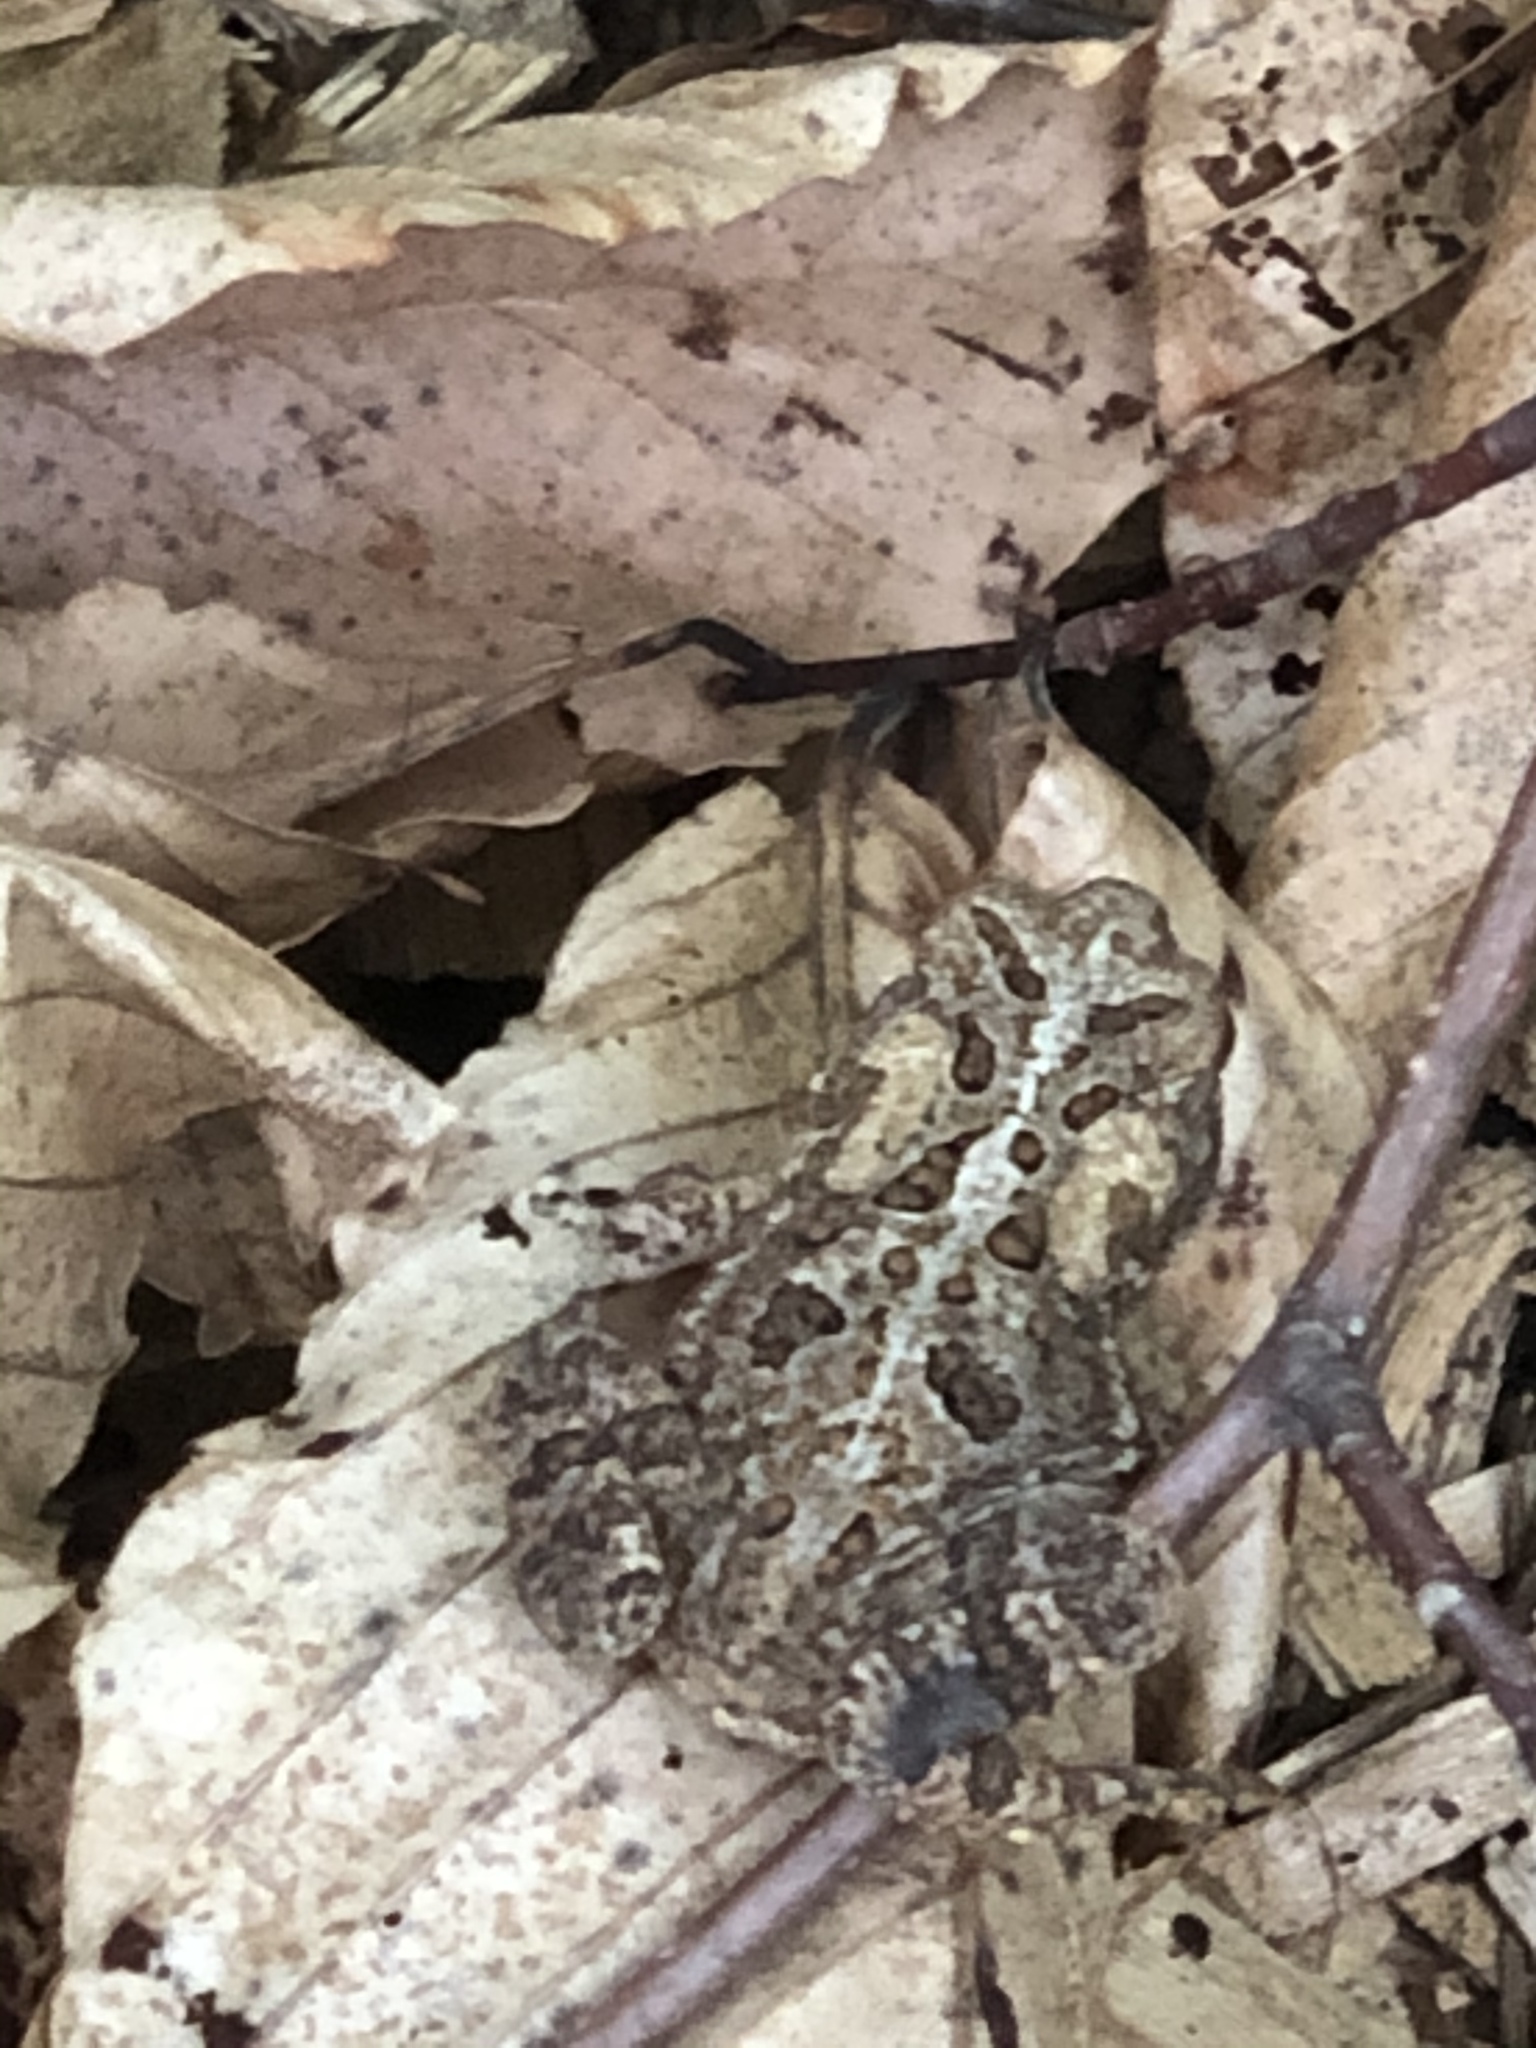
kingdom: Animalia
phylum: Chordata
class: Amphibia
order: Anura
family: Bufonidae
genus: Anaxyrus
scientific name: Anaxyrus americanus
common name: American toad
